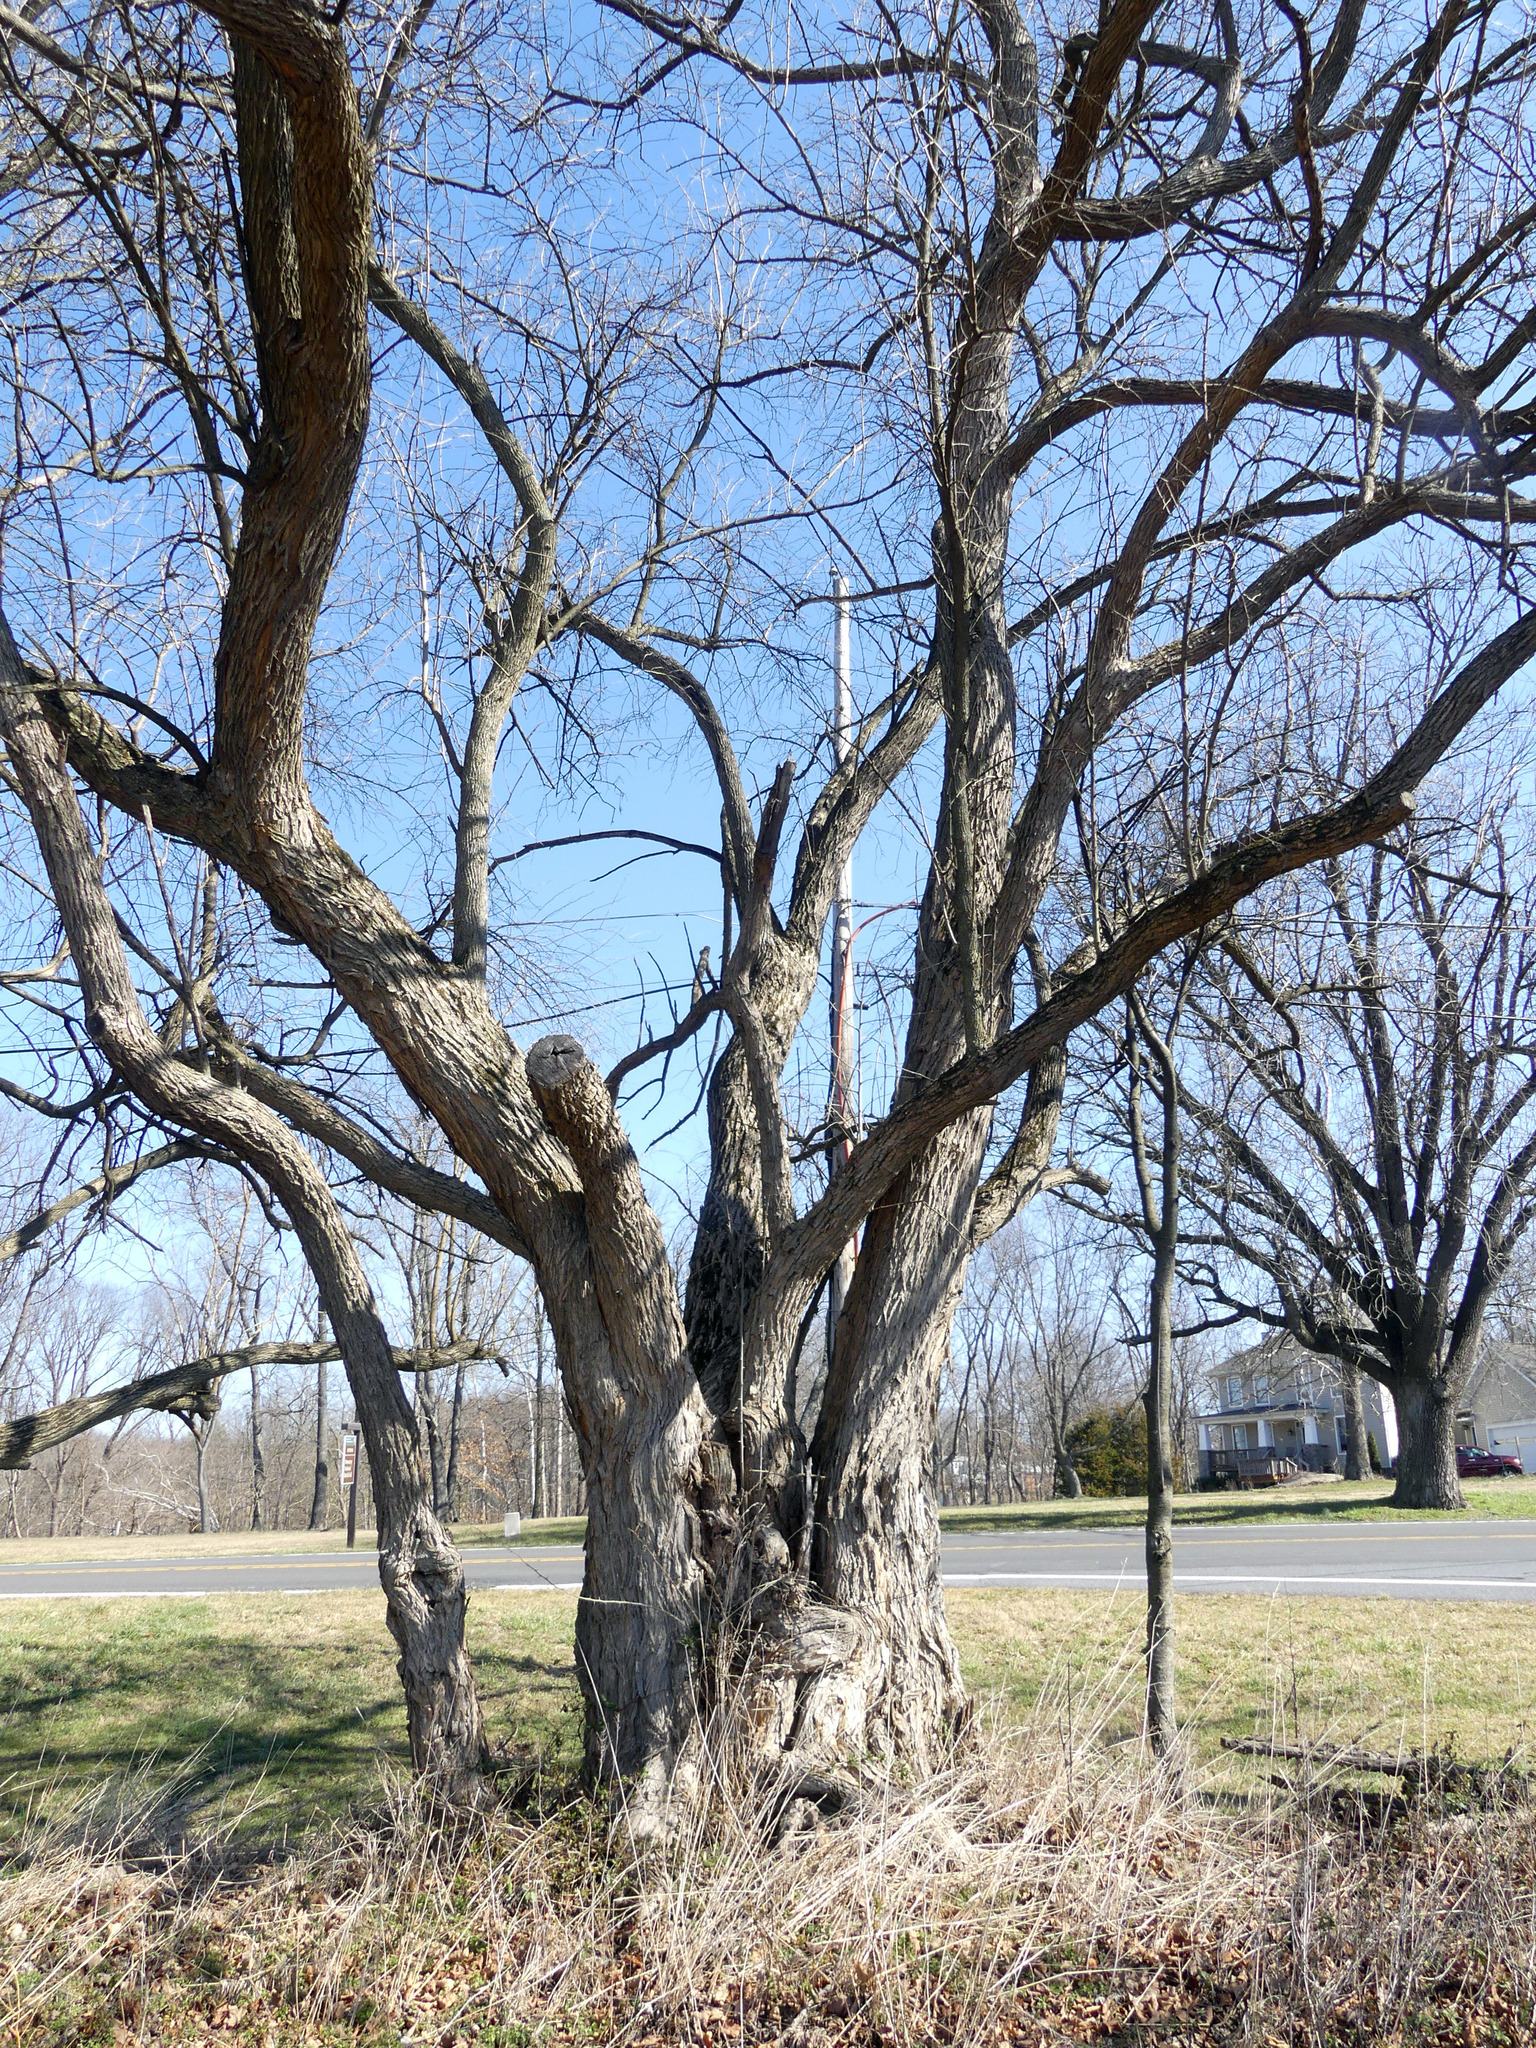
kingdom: Plantae
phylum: Tracheophyta
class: Magnoliopsida
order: Rosales
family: Moraceae
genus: Maclura
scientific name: Maclura pomifera
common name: Osage-orange
